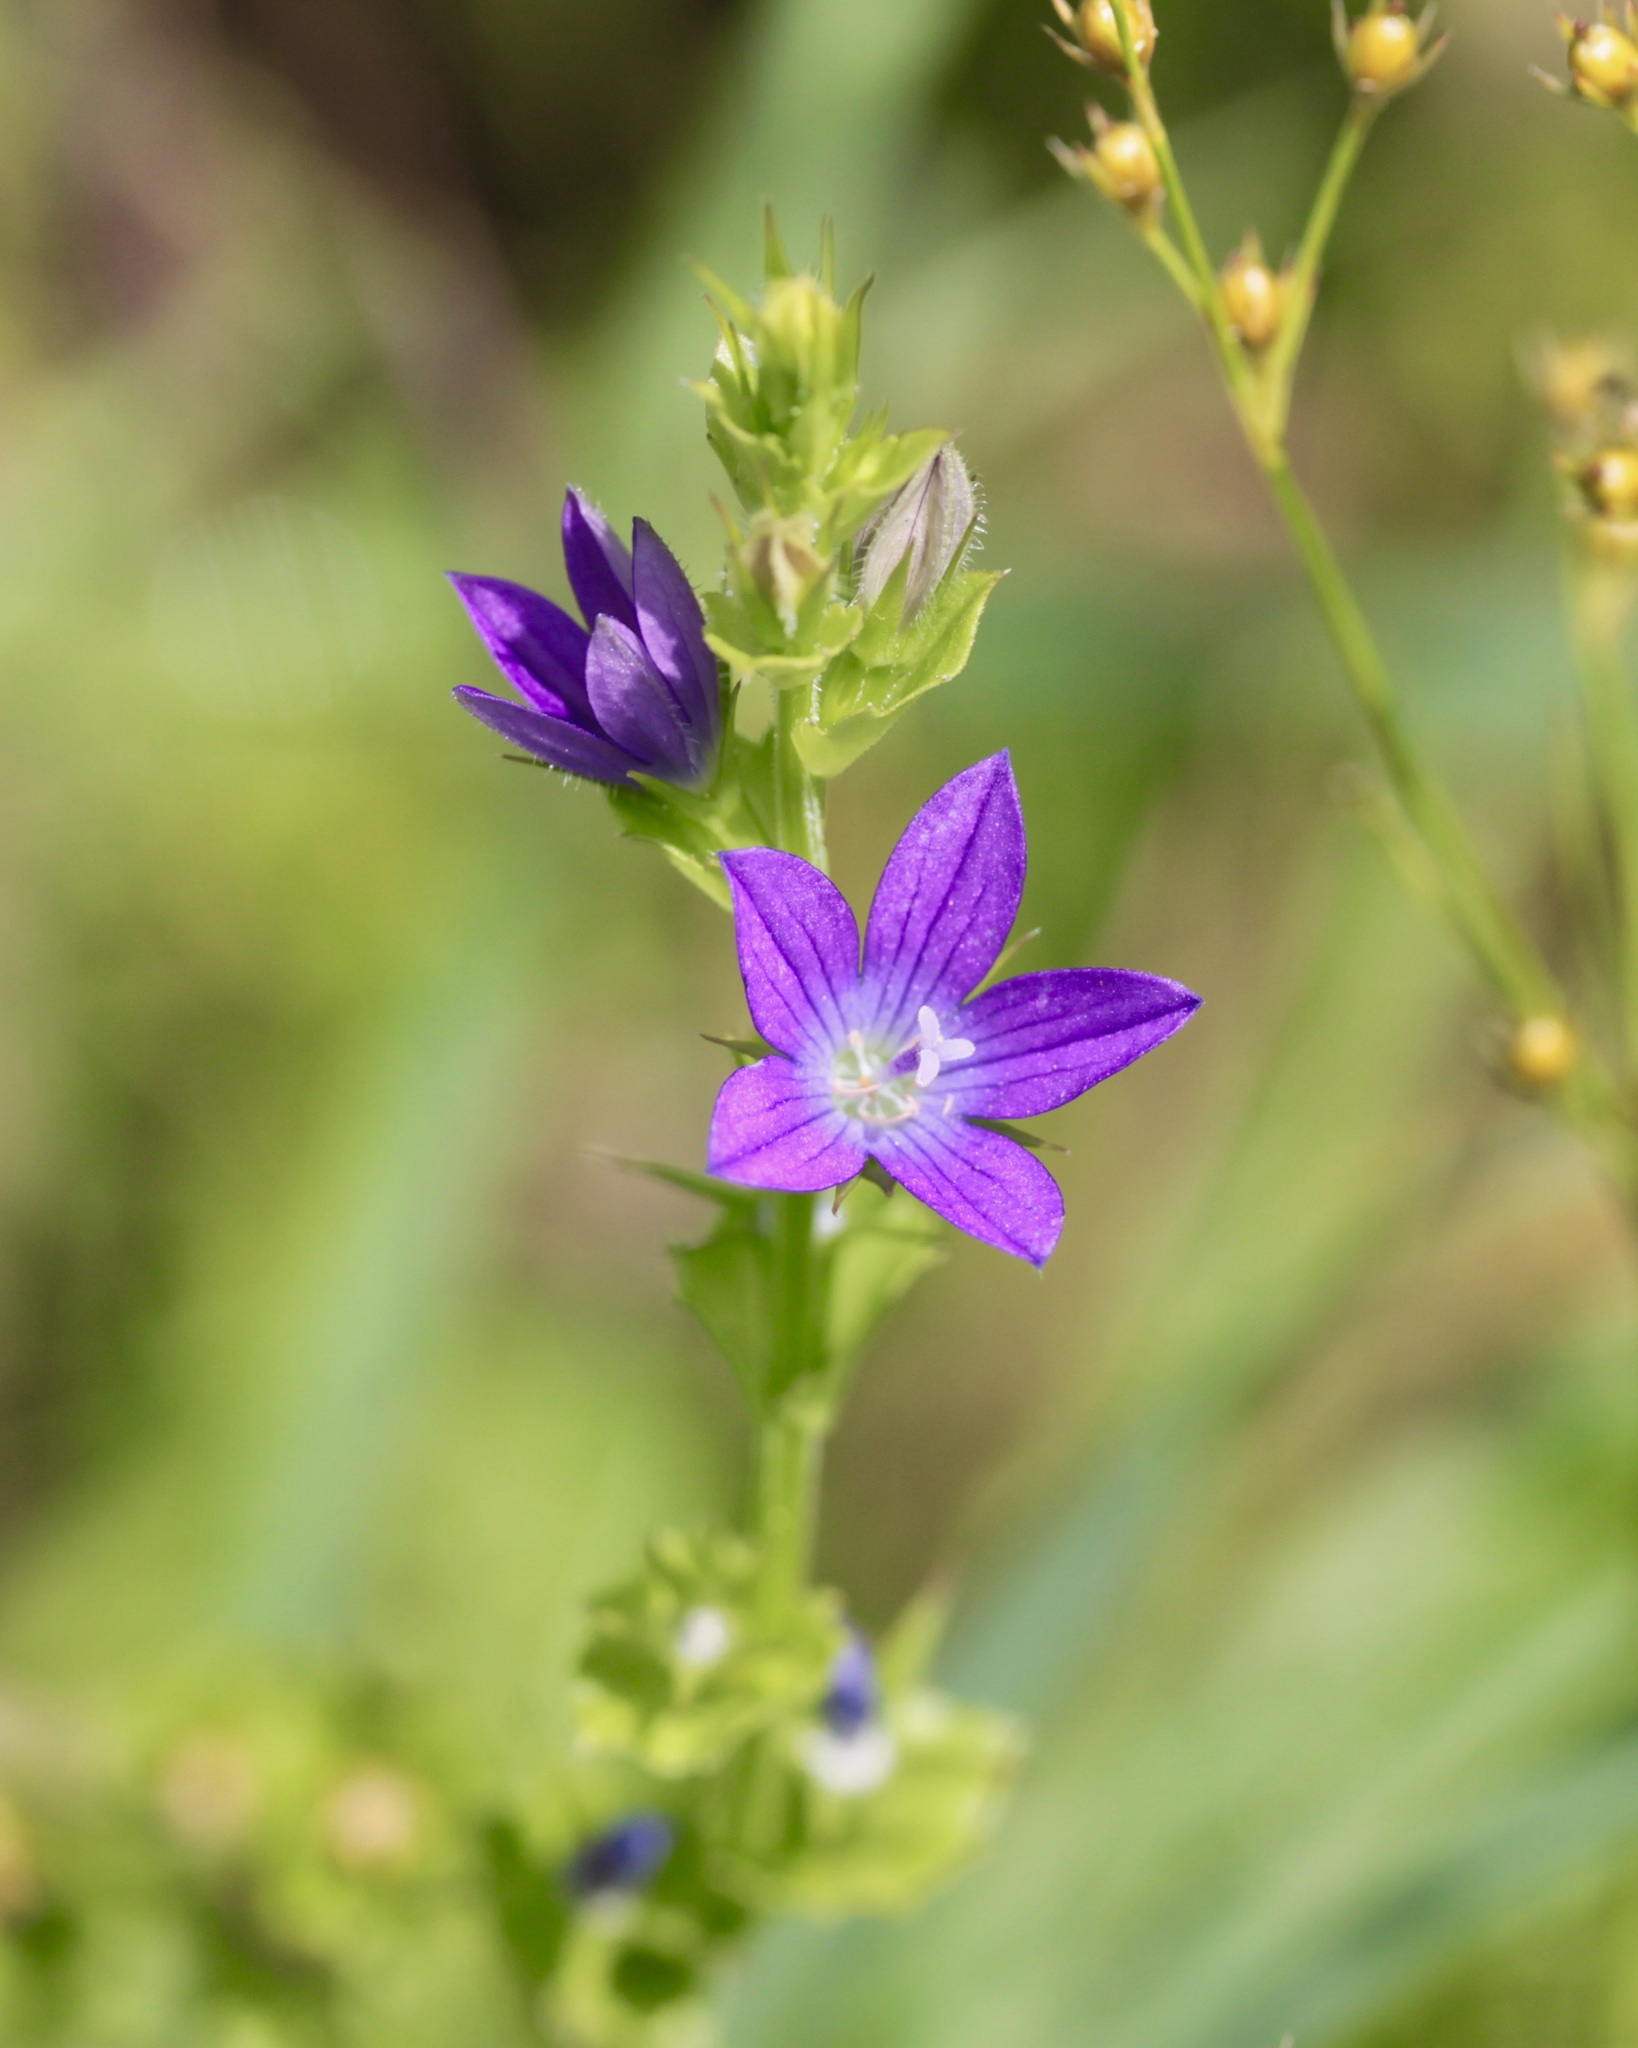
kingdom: Plantae
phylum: Tracheophyta
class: Magnoliopsida
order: Asterales
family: Campanulaceae
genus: Triodanis
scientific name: Triodanis perfoliata
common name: Clasping venus' looking-glass
